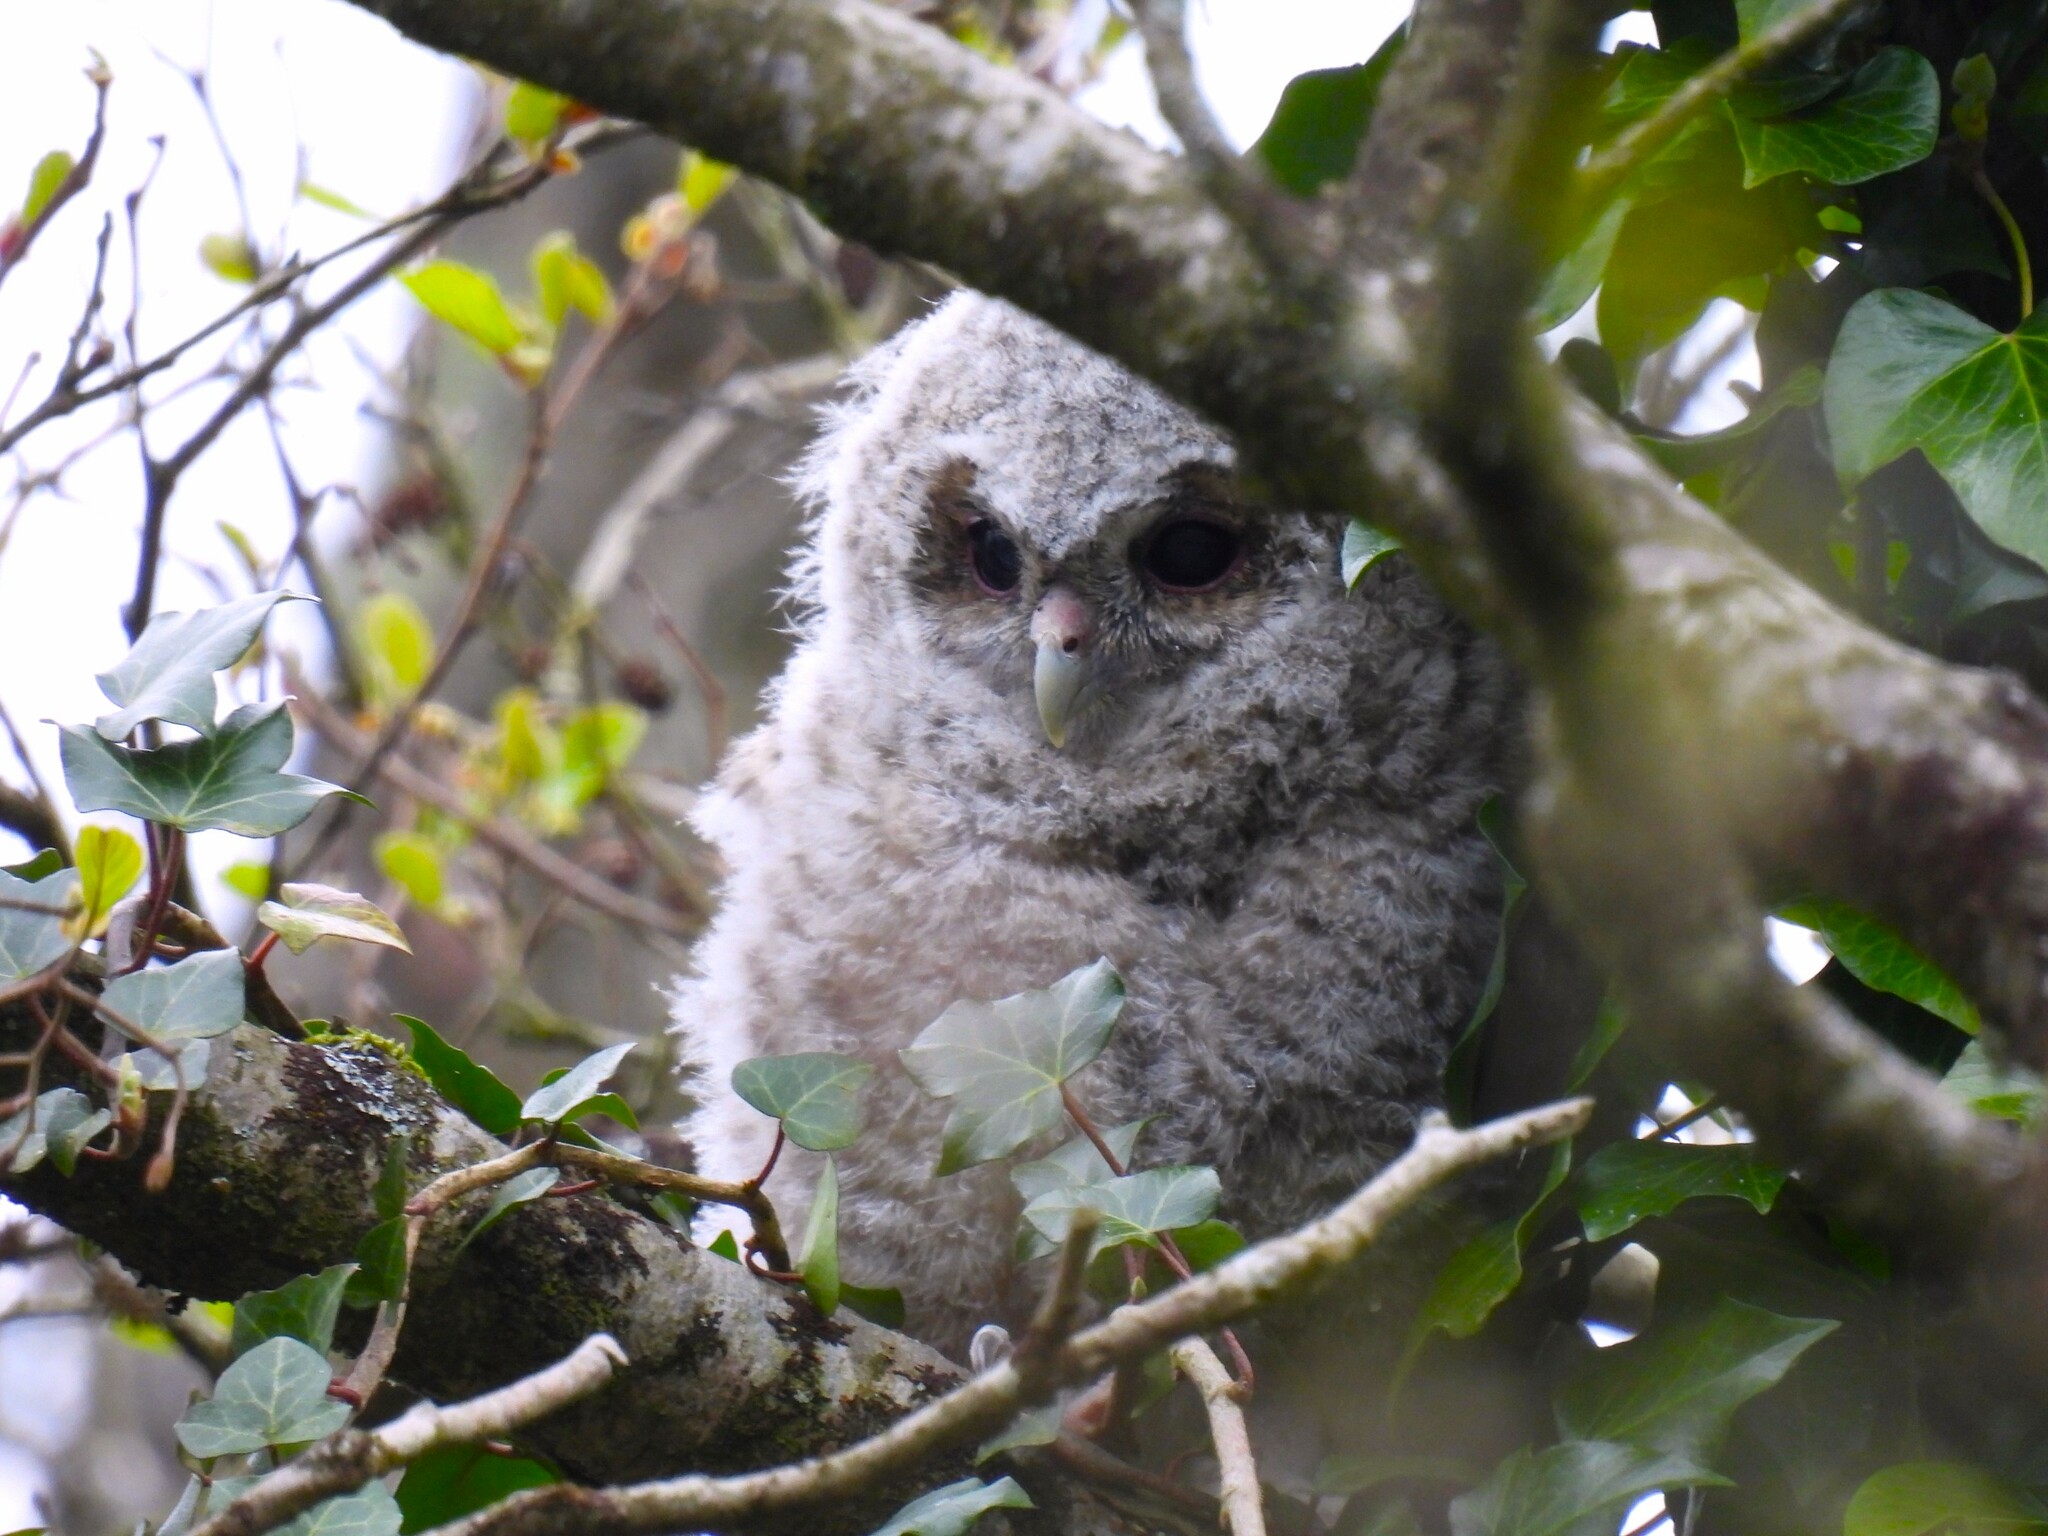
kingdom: Animalia
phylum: Chordata
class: Aves
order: Strigiformes
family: Strigidae
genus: Strix
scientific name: Strix aluco
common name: Tawny owl
